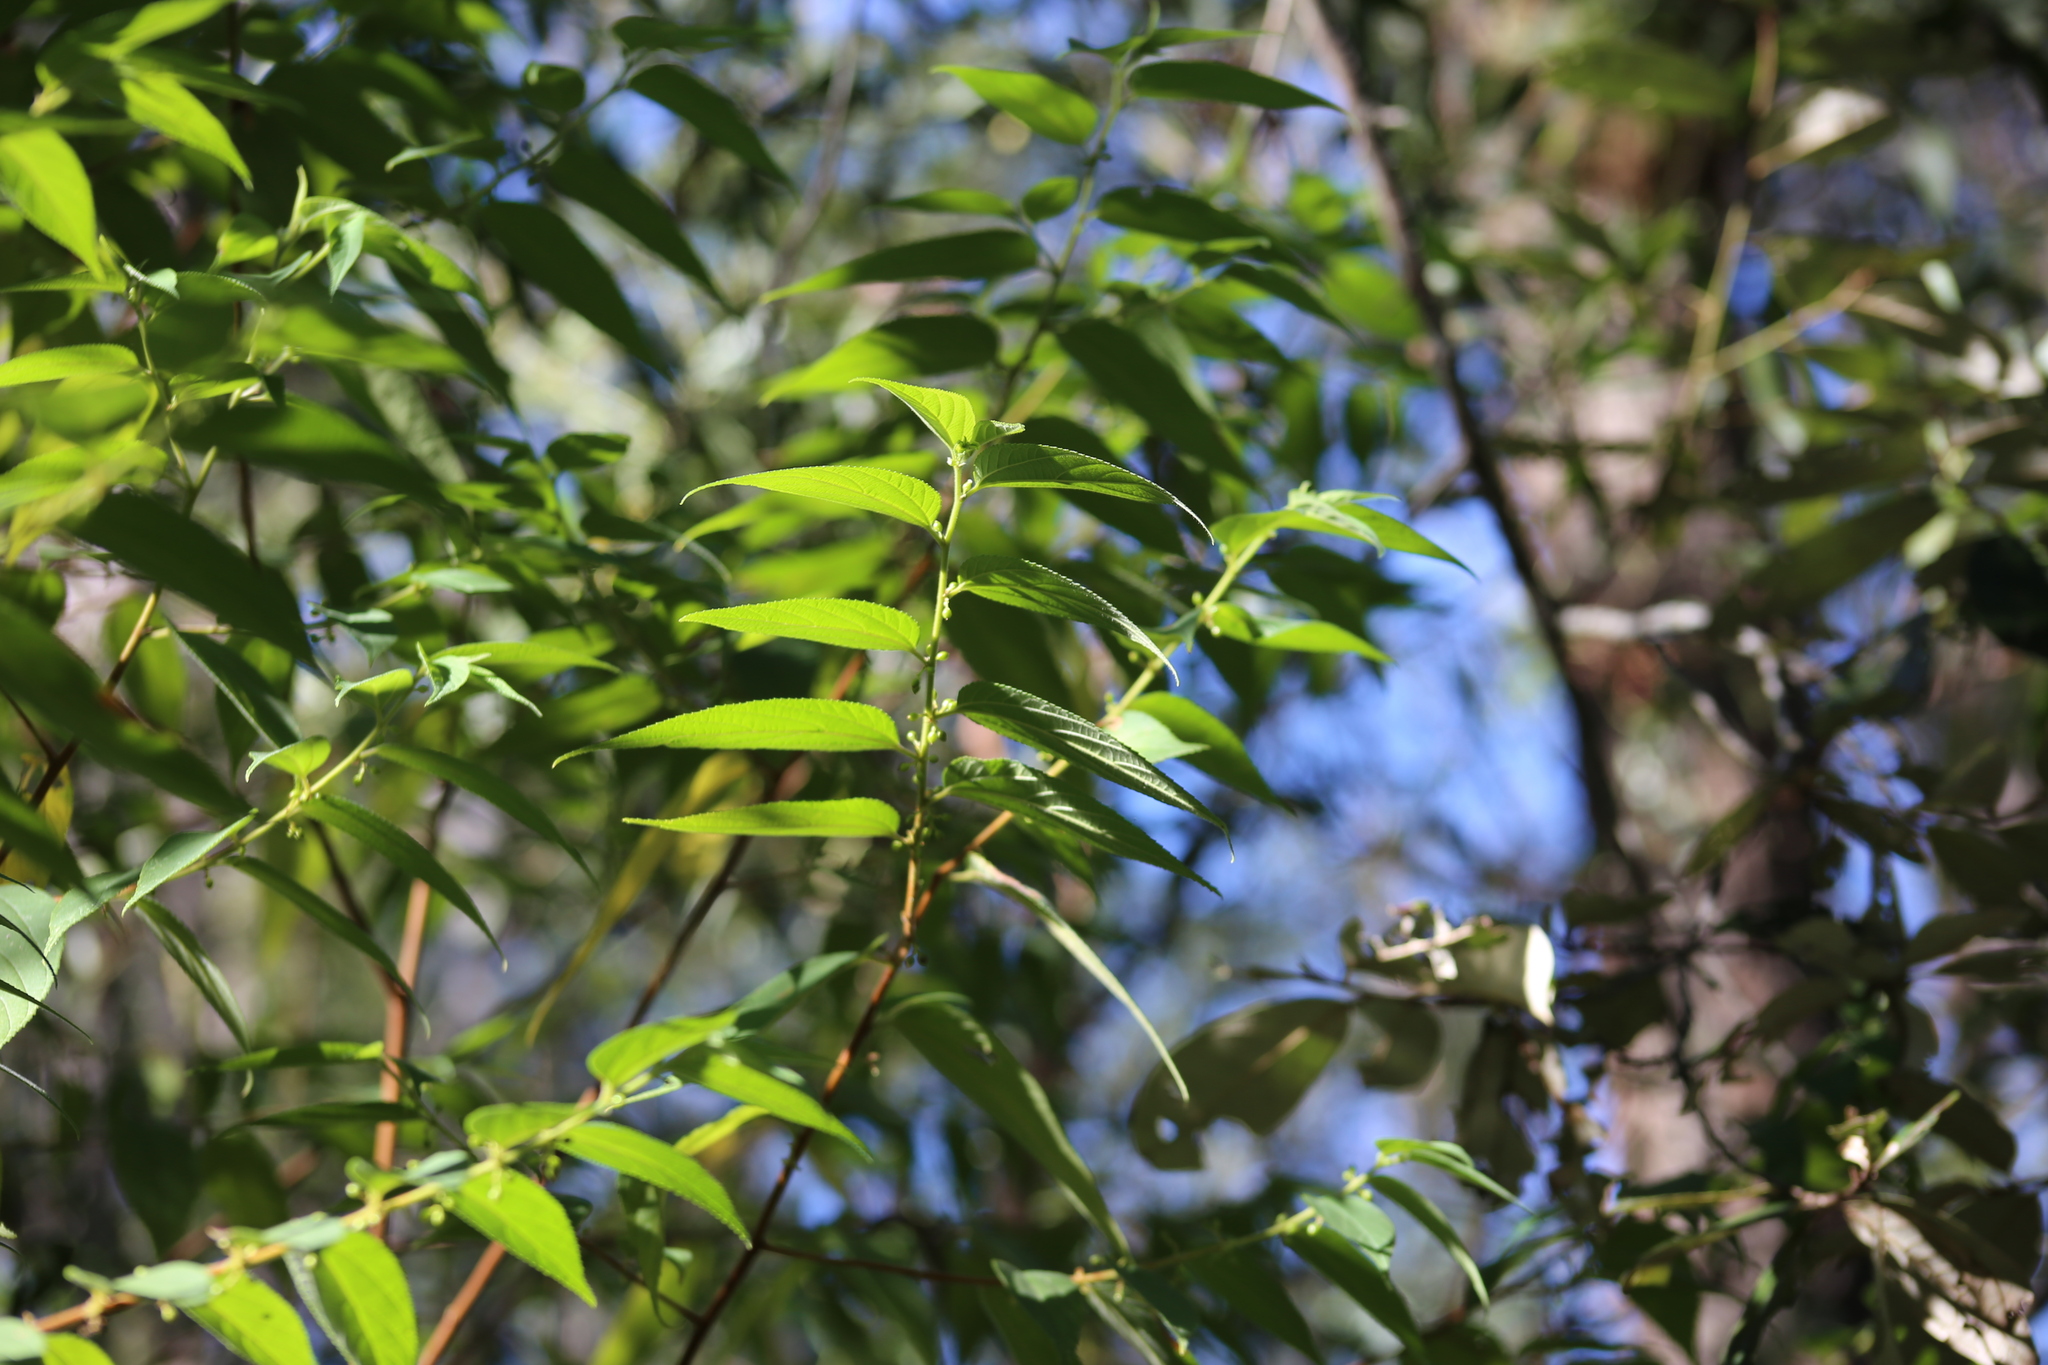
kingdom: Plantae
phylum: Tracheophyta
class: Magnoliopsida
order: Rosales
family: Cannabaceae
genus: Trema
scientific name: Trema tomentosum
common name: Peach-leaf-poisonbush
